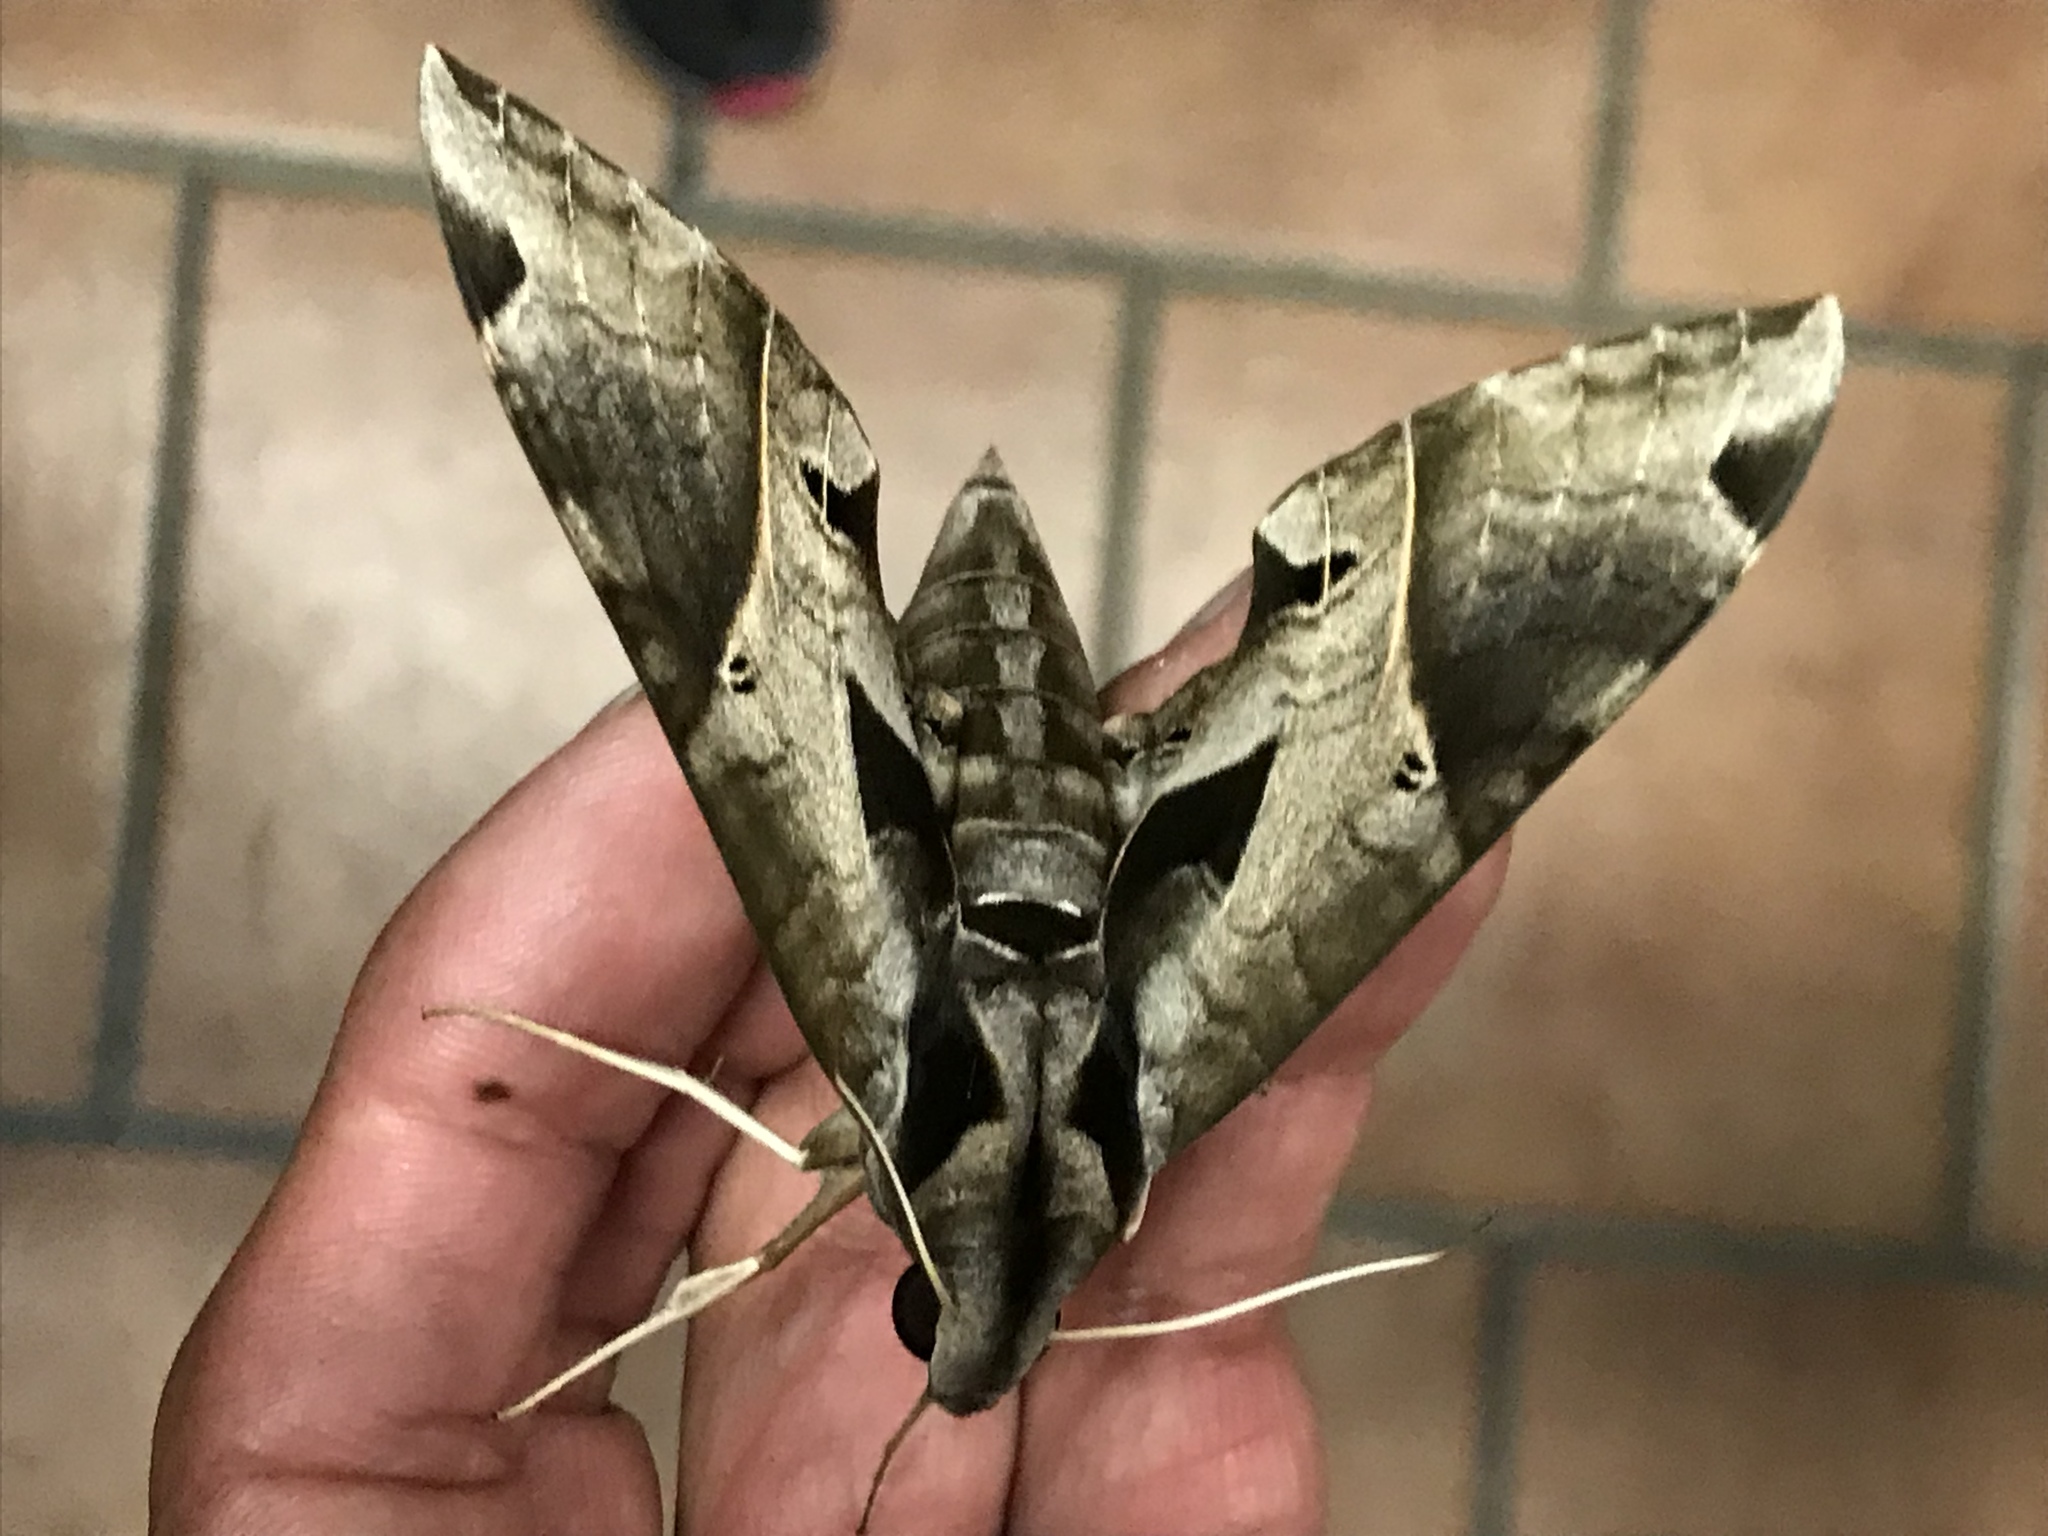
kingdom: Animalia
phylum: Arthropoda
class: Insecta
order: Lepidoptera
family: Sphingidae
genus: Eumorpha
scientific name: Eumorpha satellitia
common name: Satellite sphinx
